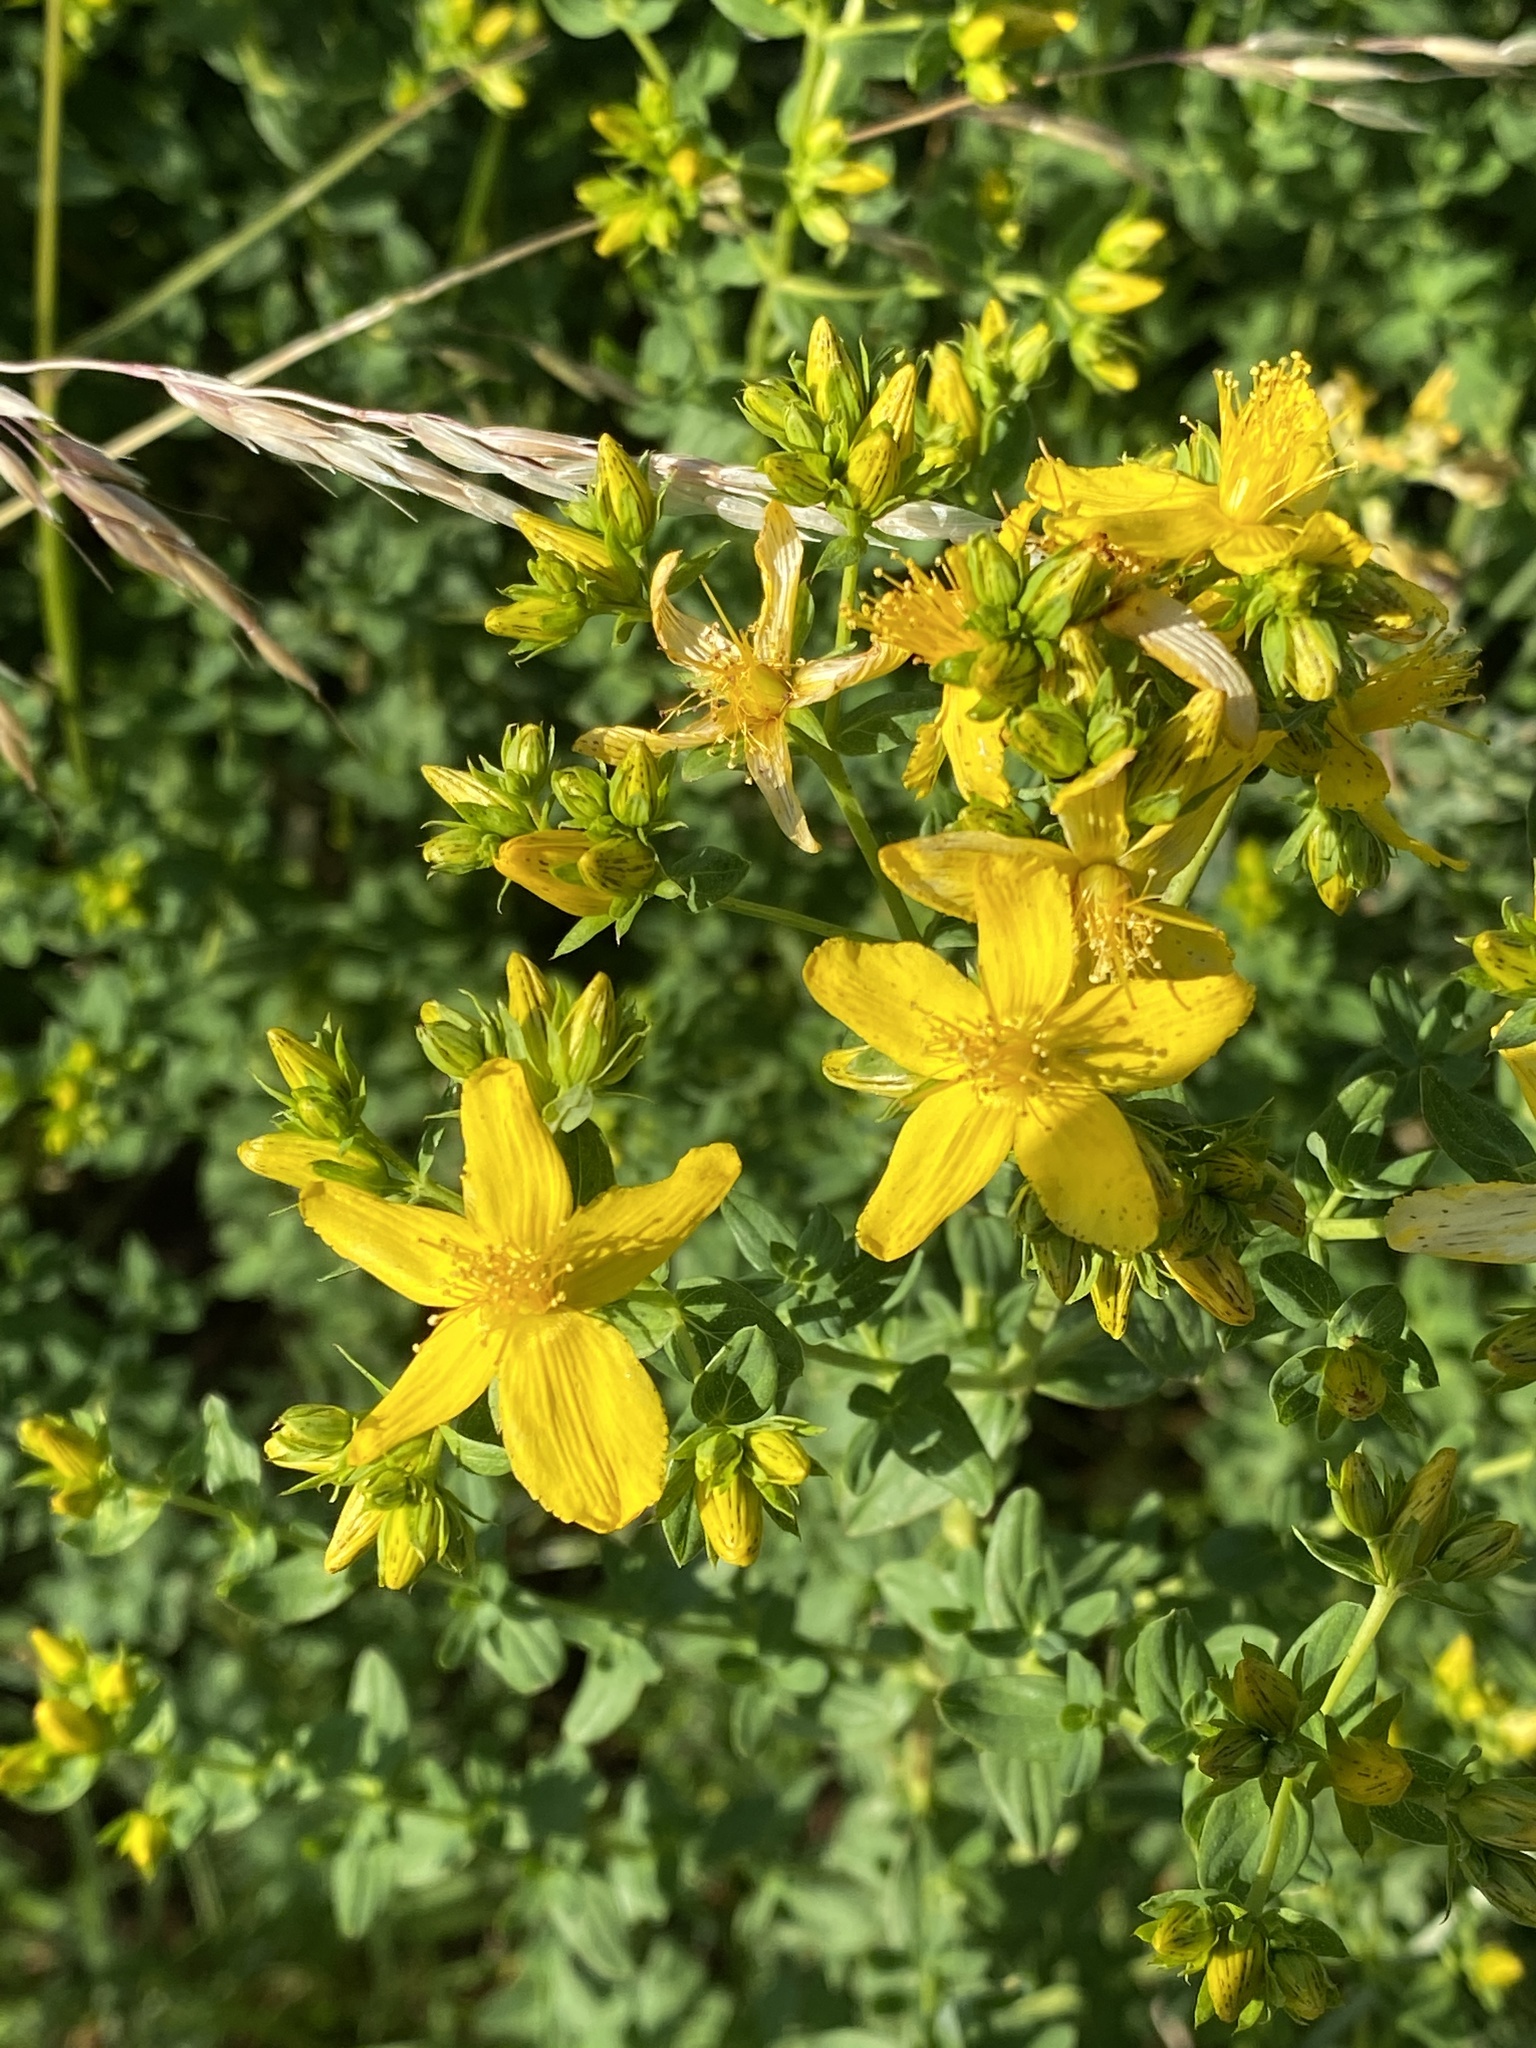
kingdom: Plantae
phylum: Tracheophyta
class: Magnoliopsida
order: Malpighiales
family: Hypericaceae
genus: Hypericum
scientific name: Hypericum perforatum
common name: Common st. johnswort
